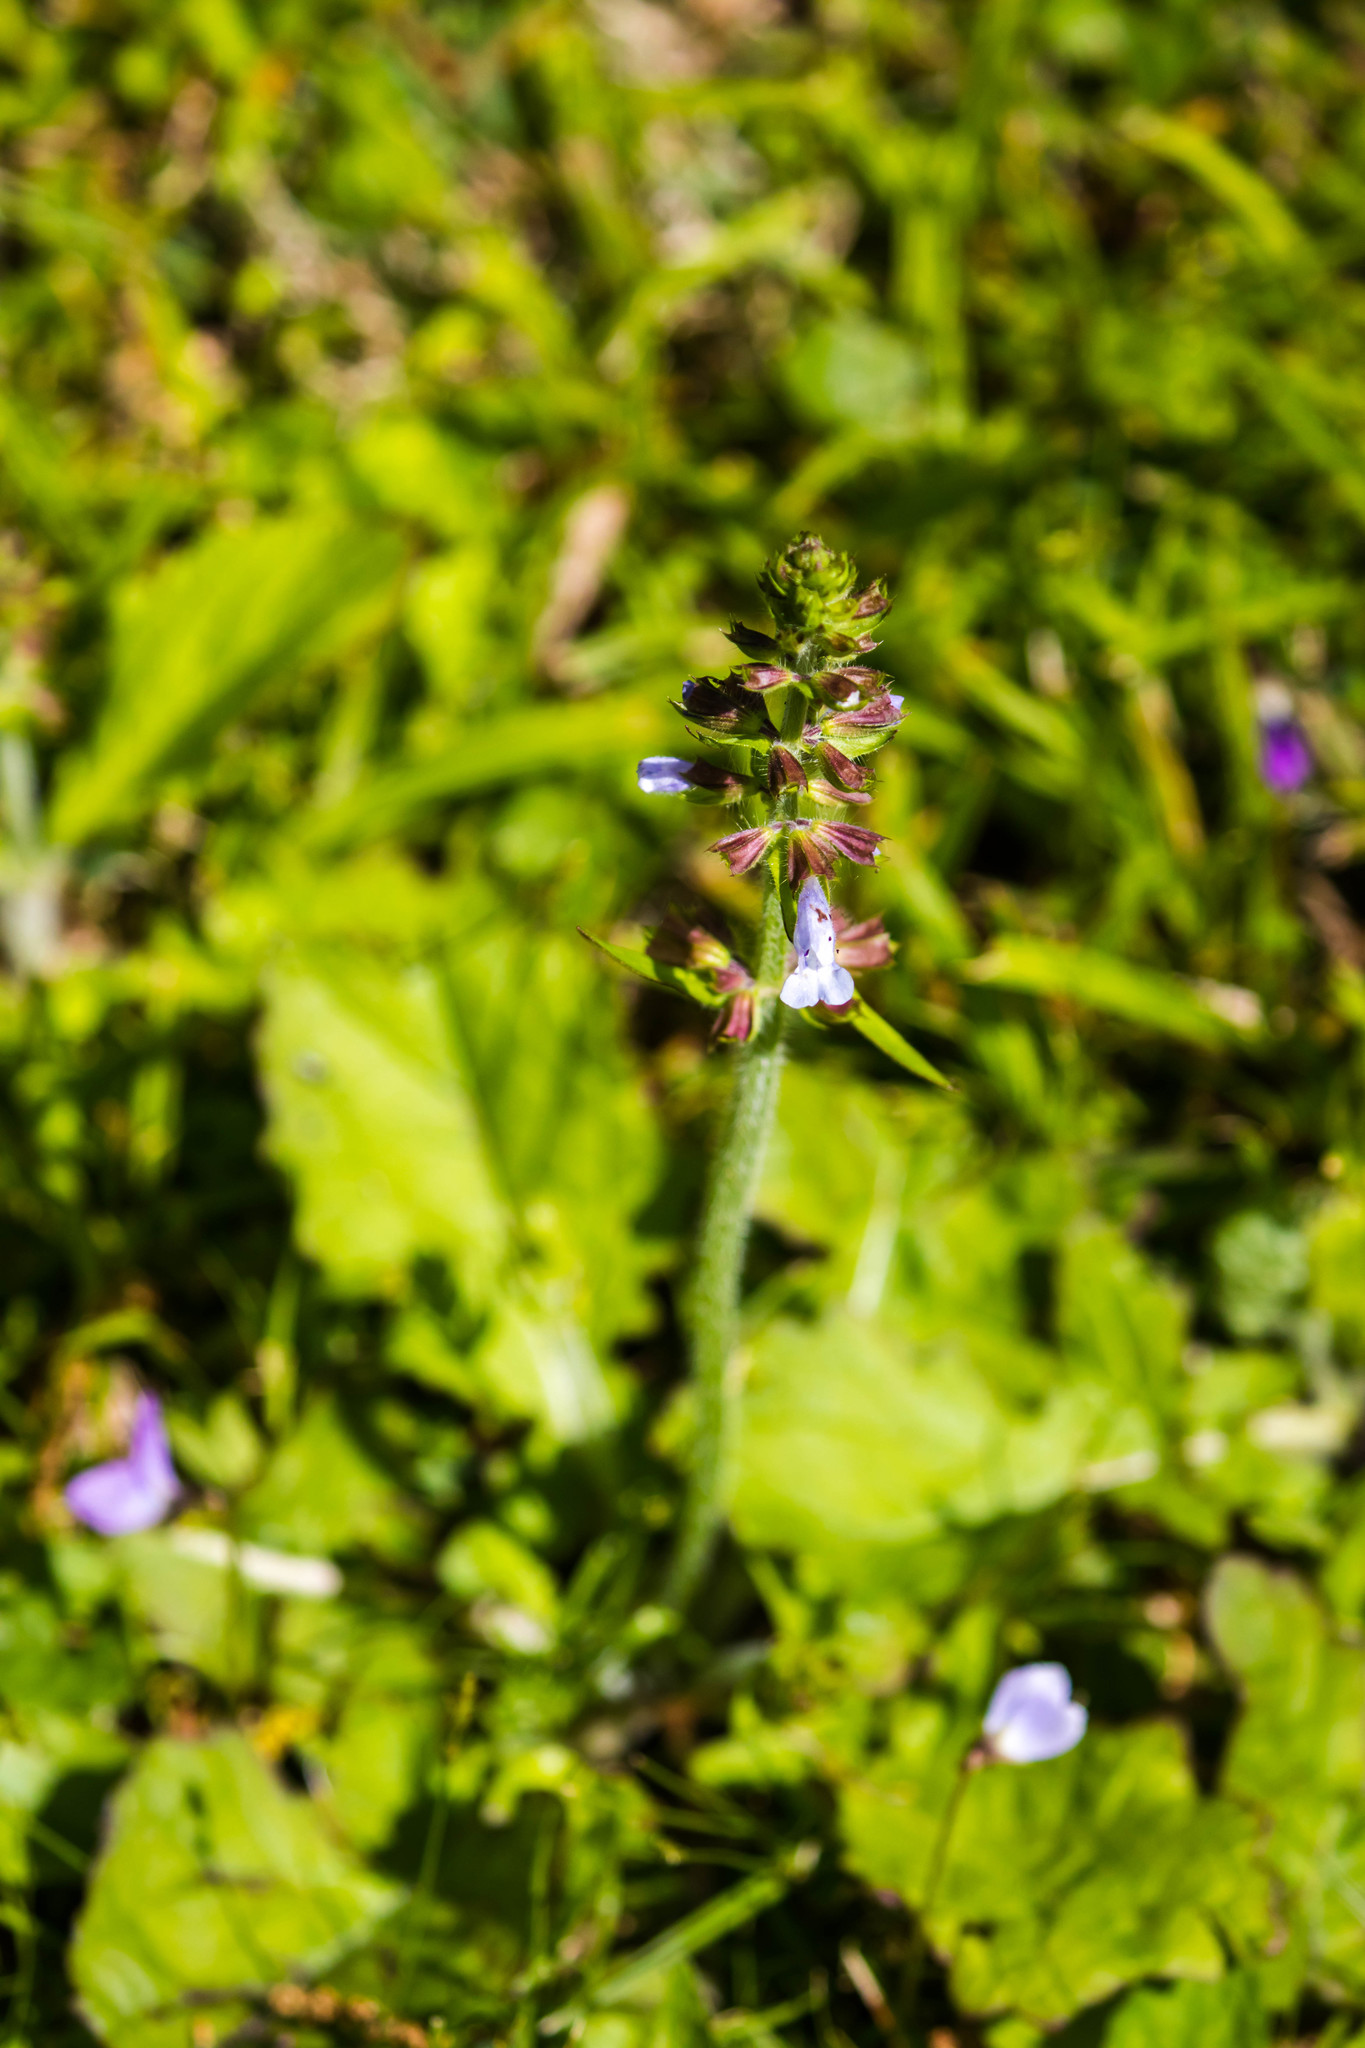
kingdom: Plantae
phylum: Tracheophyta
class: Magnoliopsida
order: Lamiales
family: Lamiaceae
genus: Salvia
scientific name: Salvia lyrata
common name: Cancerweed
